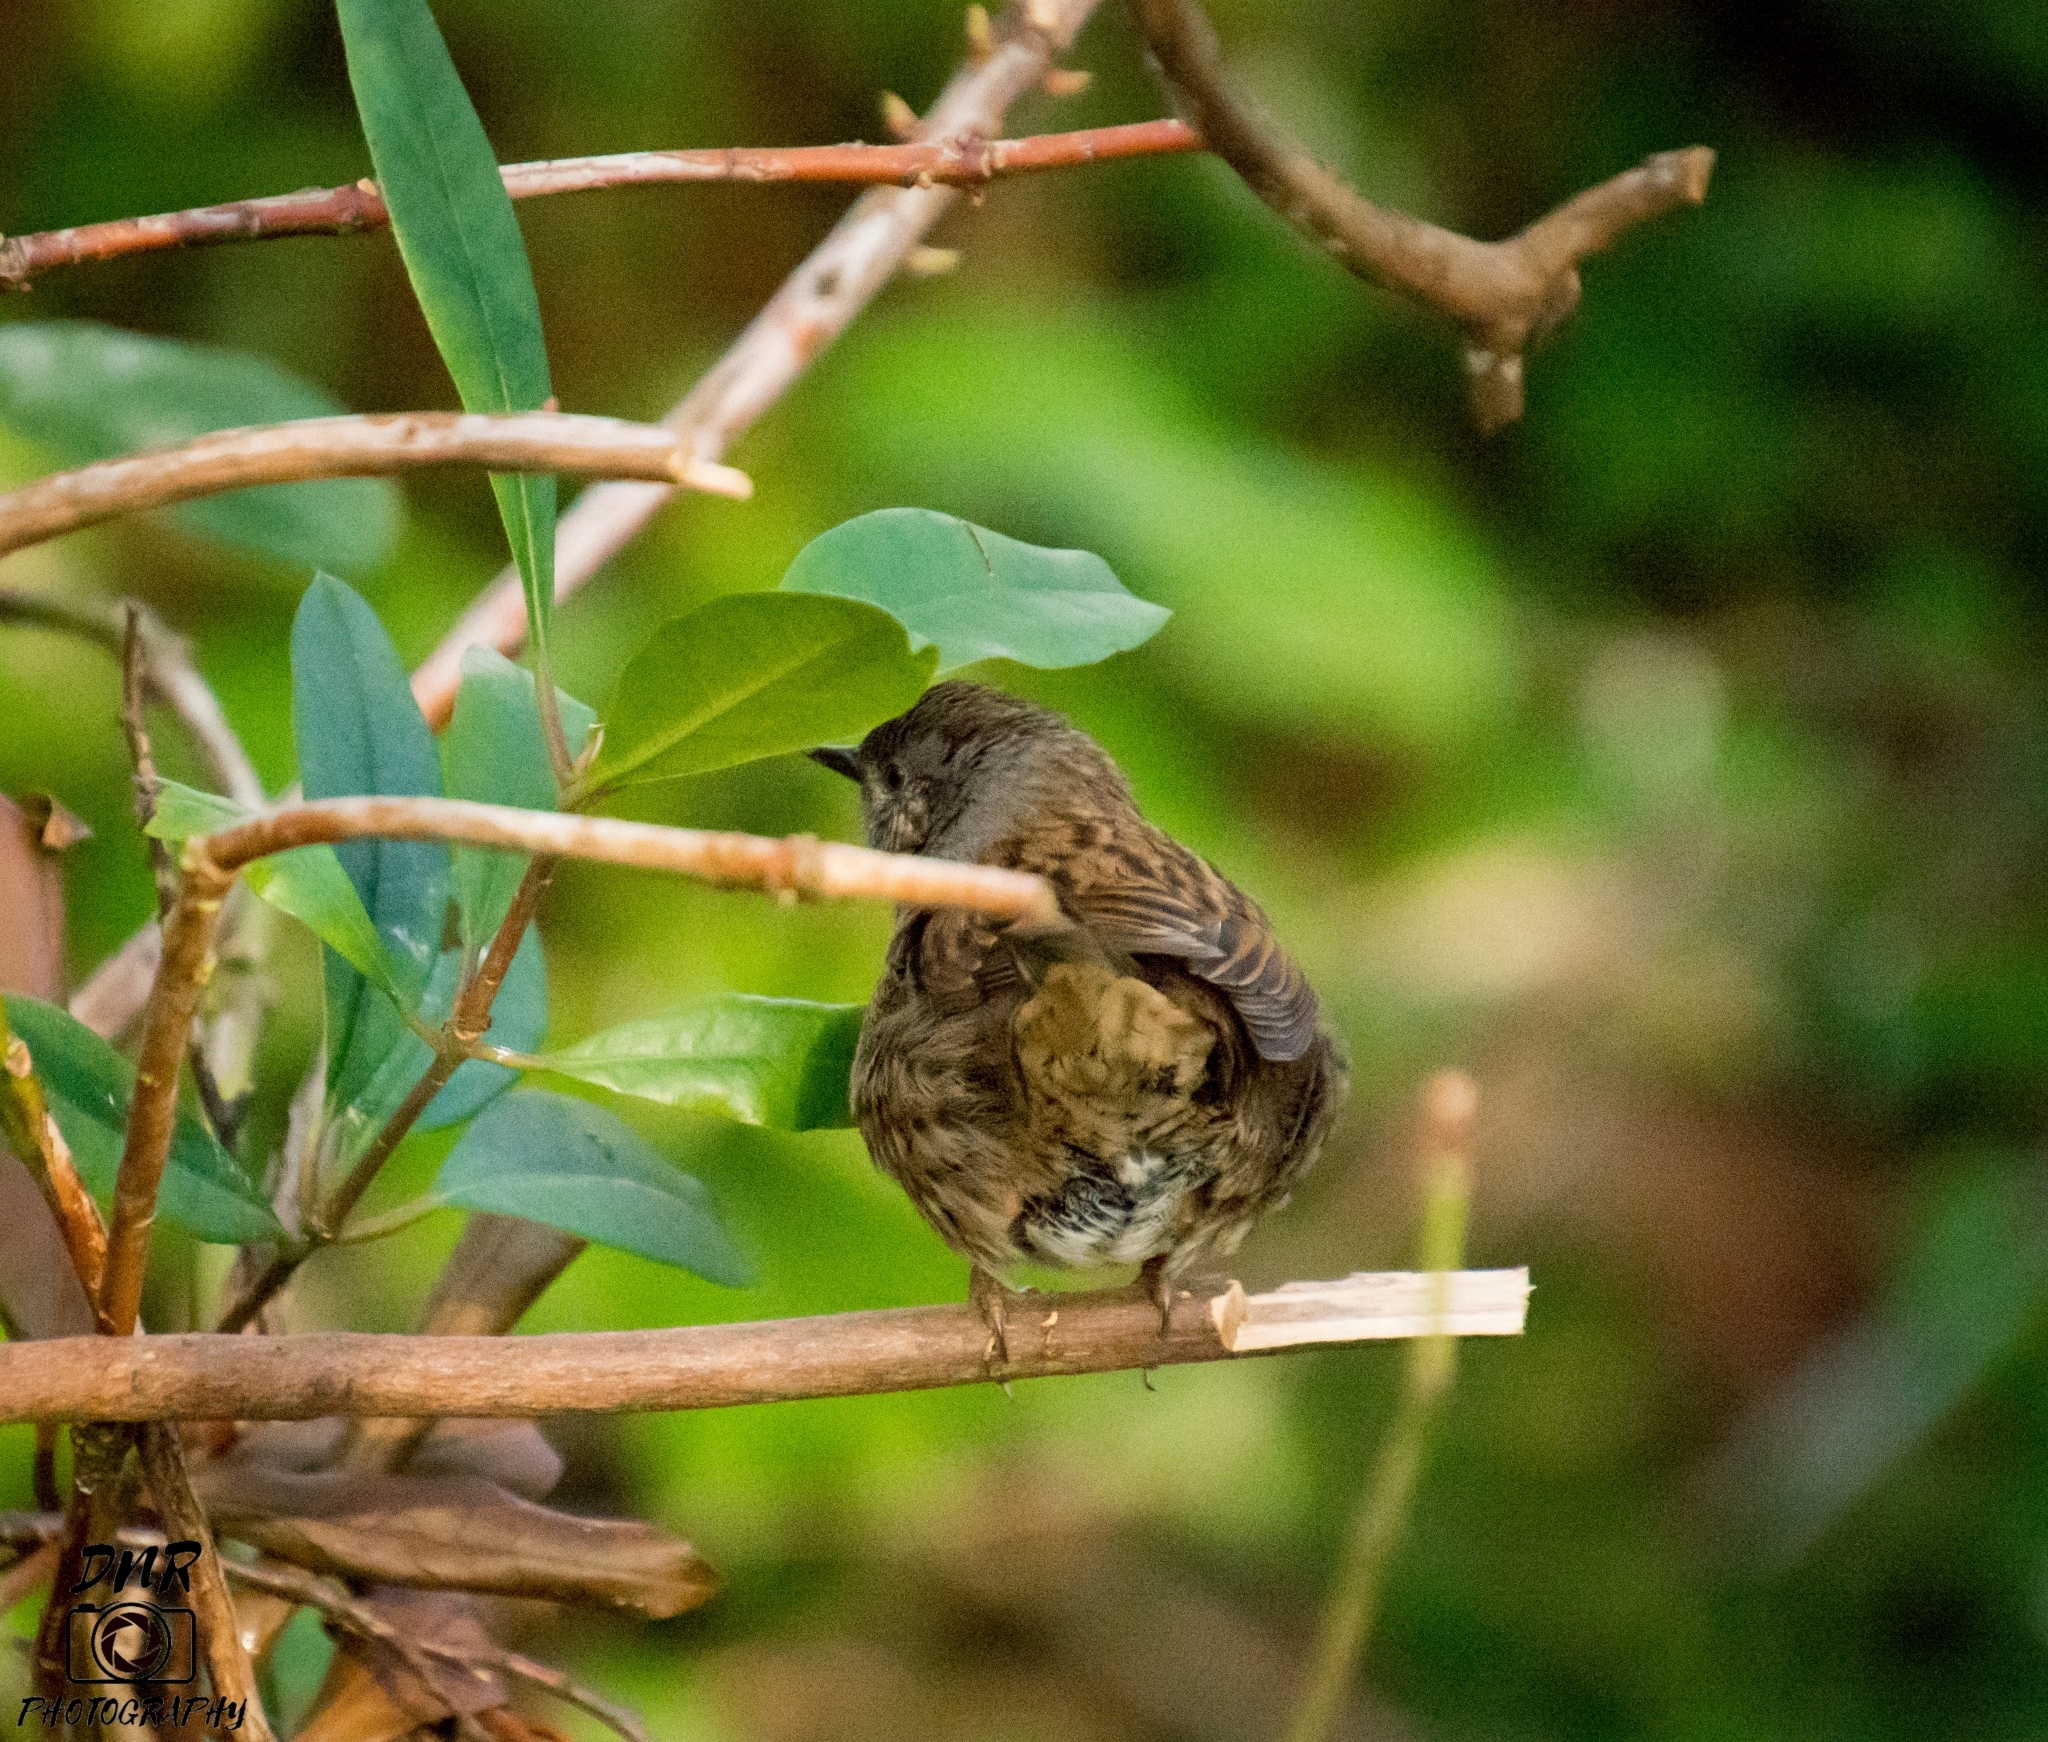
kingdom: Animalia
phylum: Chordata
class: Aves
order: Passeriformes
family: Prunellidae
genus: Prunella
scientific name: Prunella modularis
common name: Dunnock
